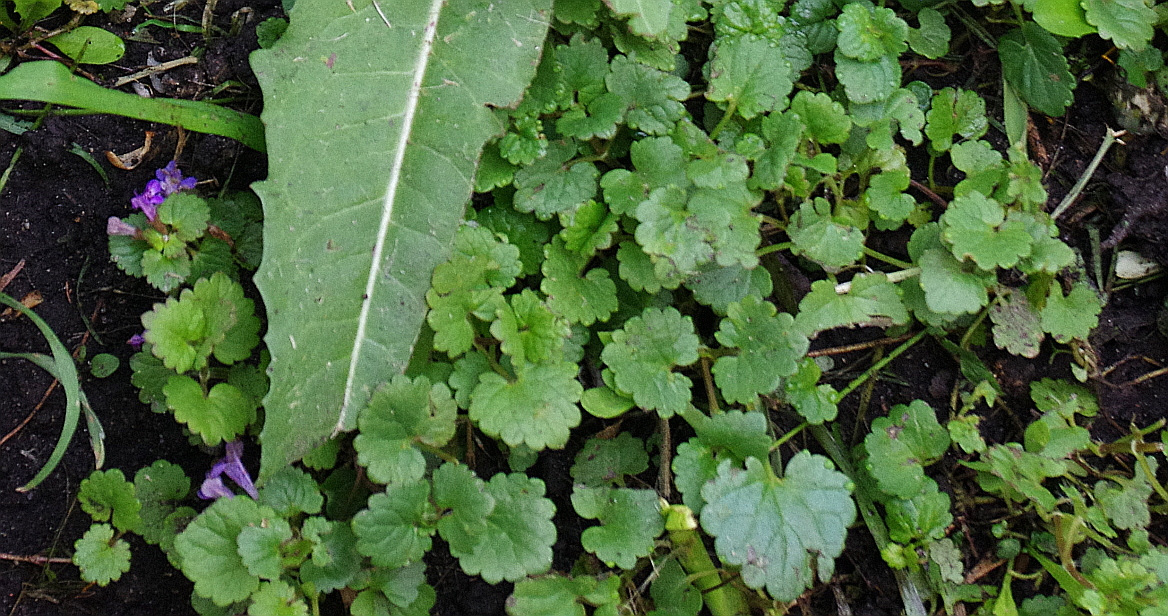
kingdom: Plantae
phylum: Tracheophyta
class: Magnoliopsida
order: Lamiales
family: Lamiaceae
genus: Glechoma
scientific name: Glechoma hederacea
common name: Ground ivy
